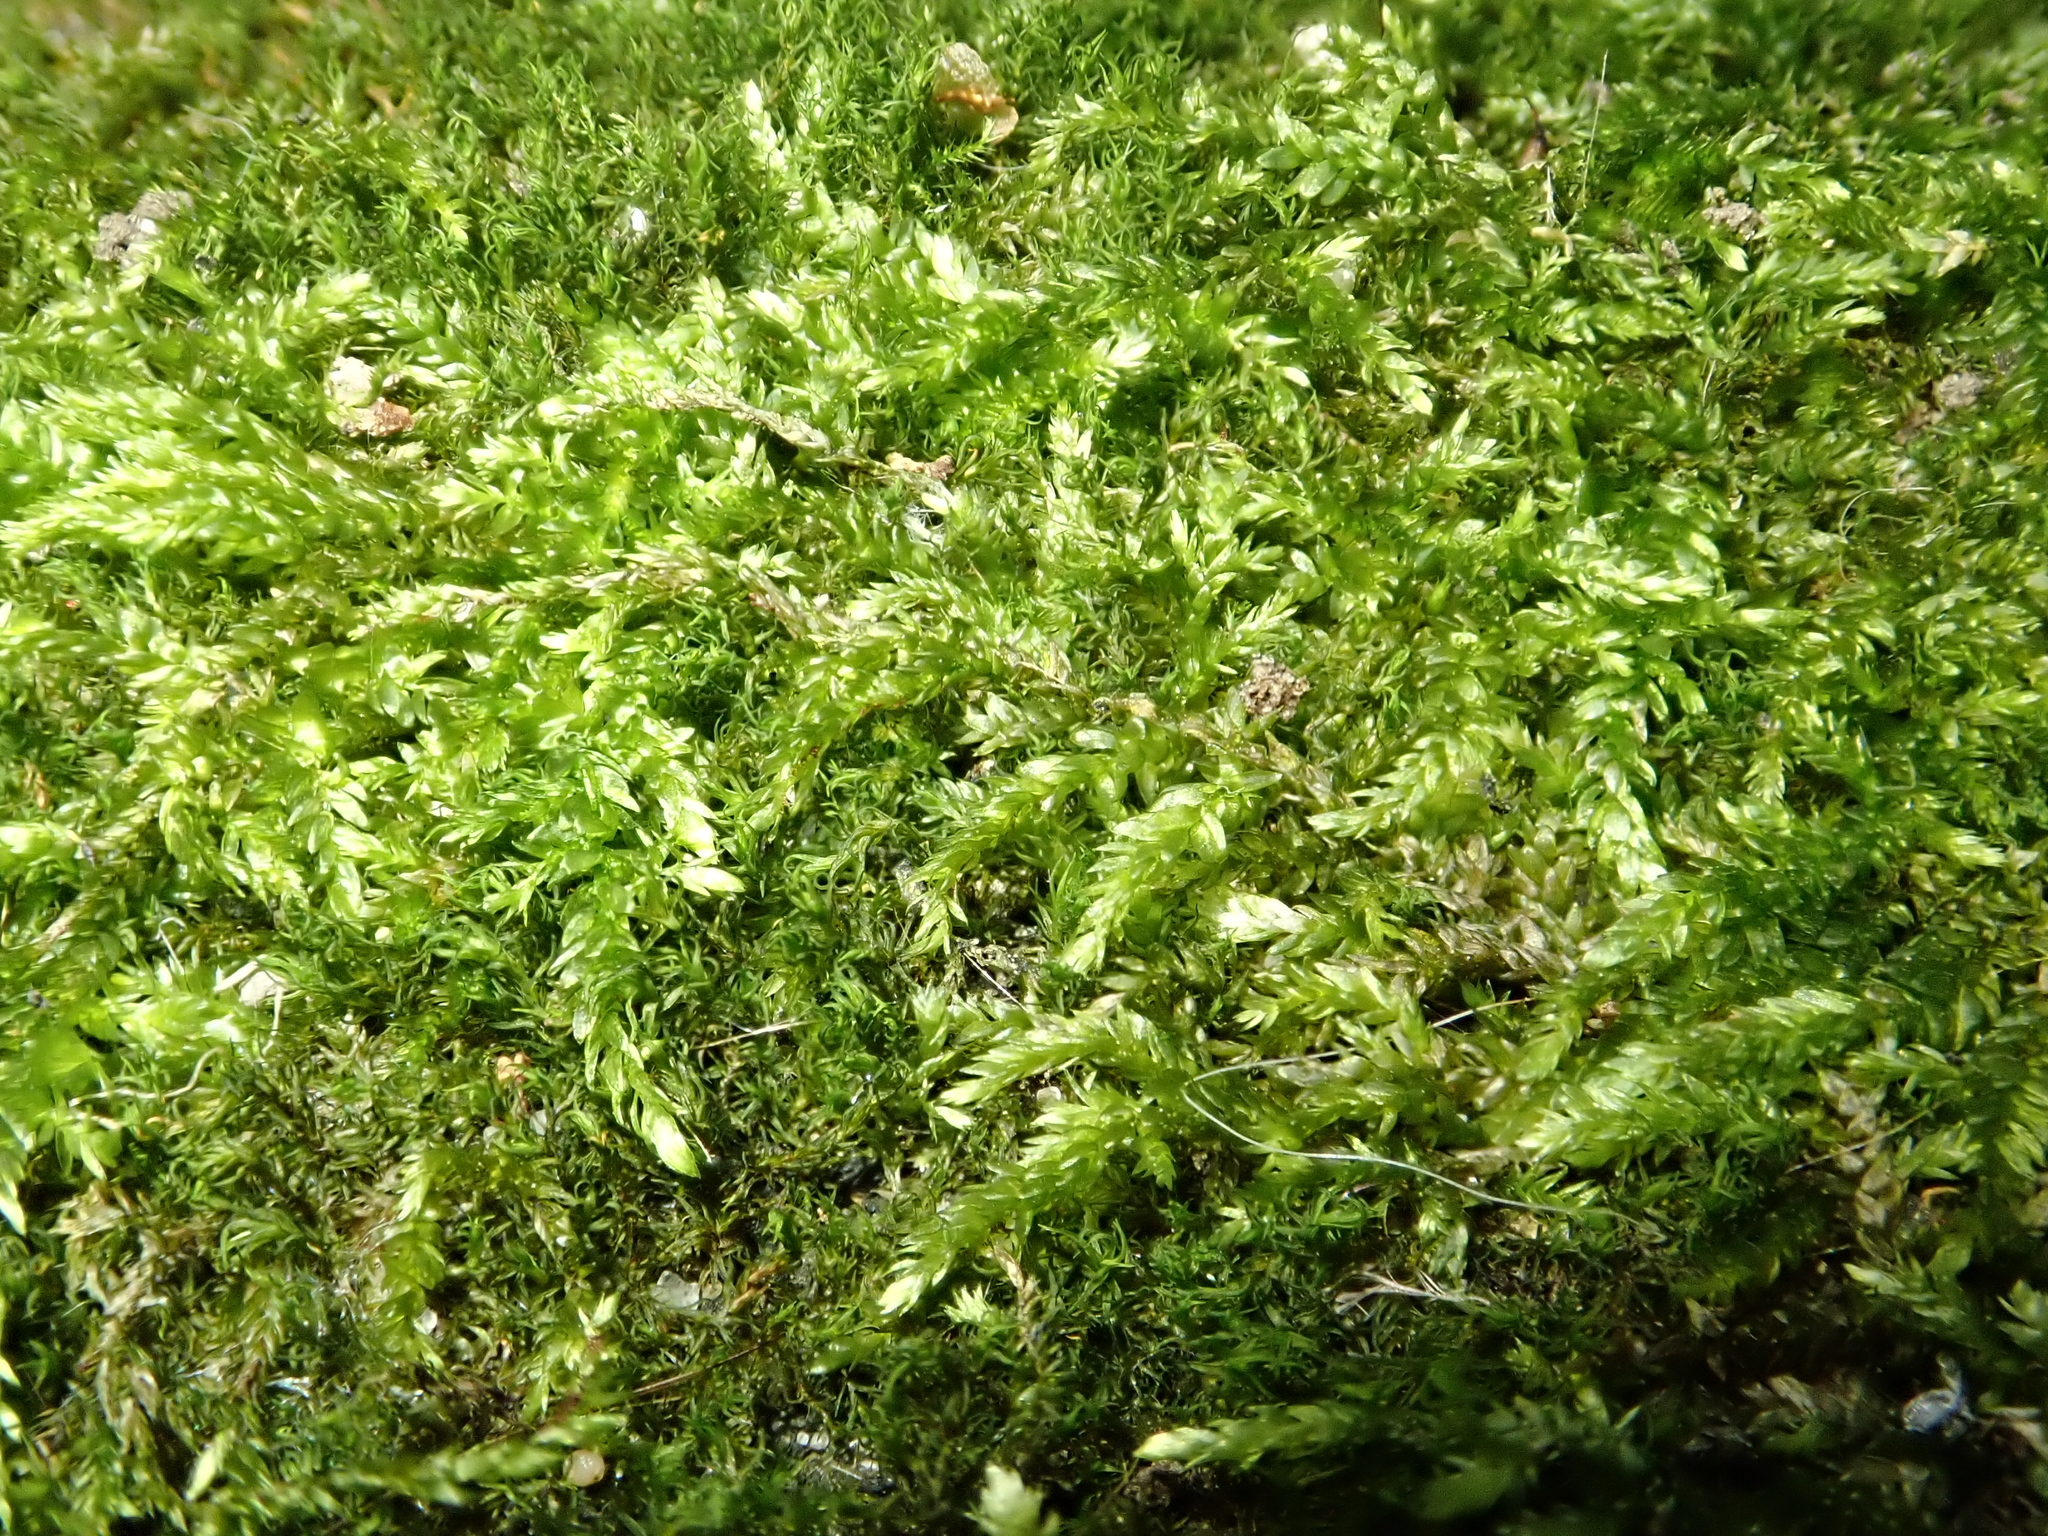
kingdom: Plantae
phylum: Bryophyta
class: Bryopsida
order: Hypnales
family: Hypnaceae
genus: Hypnum
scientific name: Hypnum cupressiforme
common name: Cypress-leaved plait-moss
